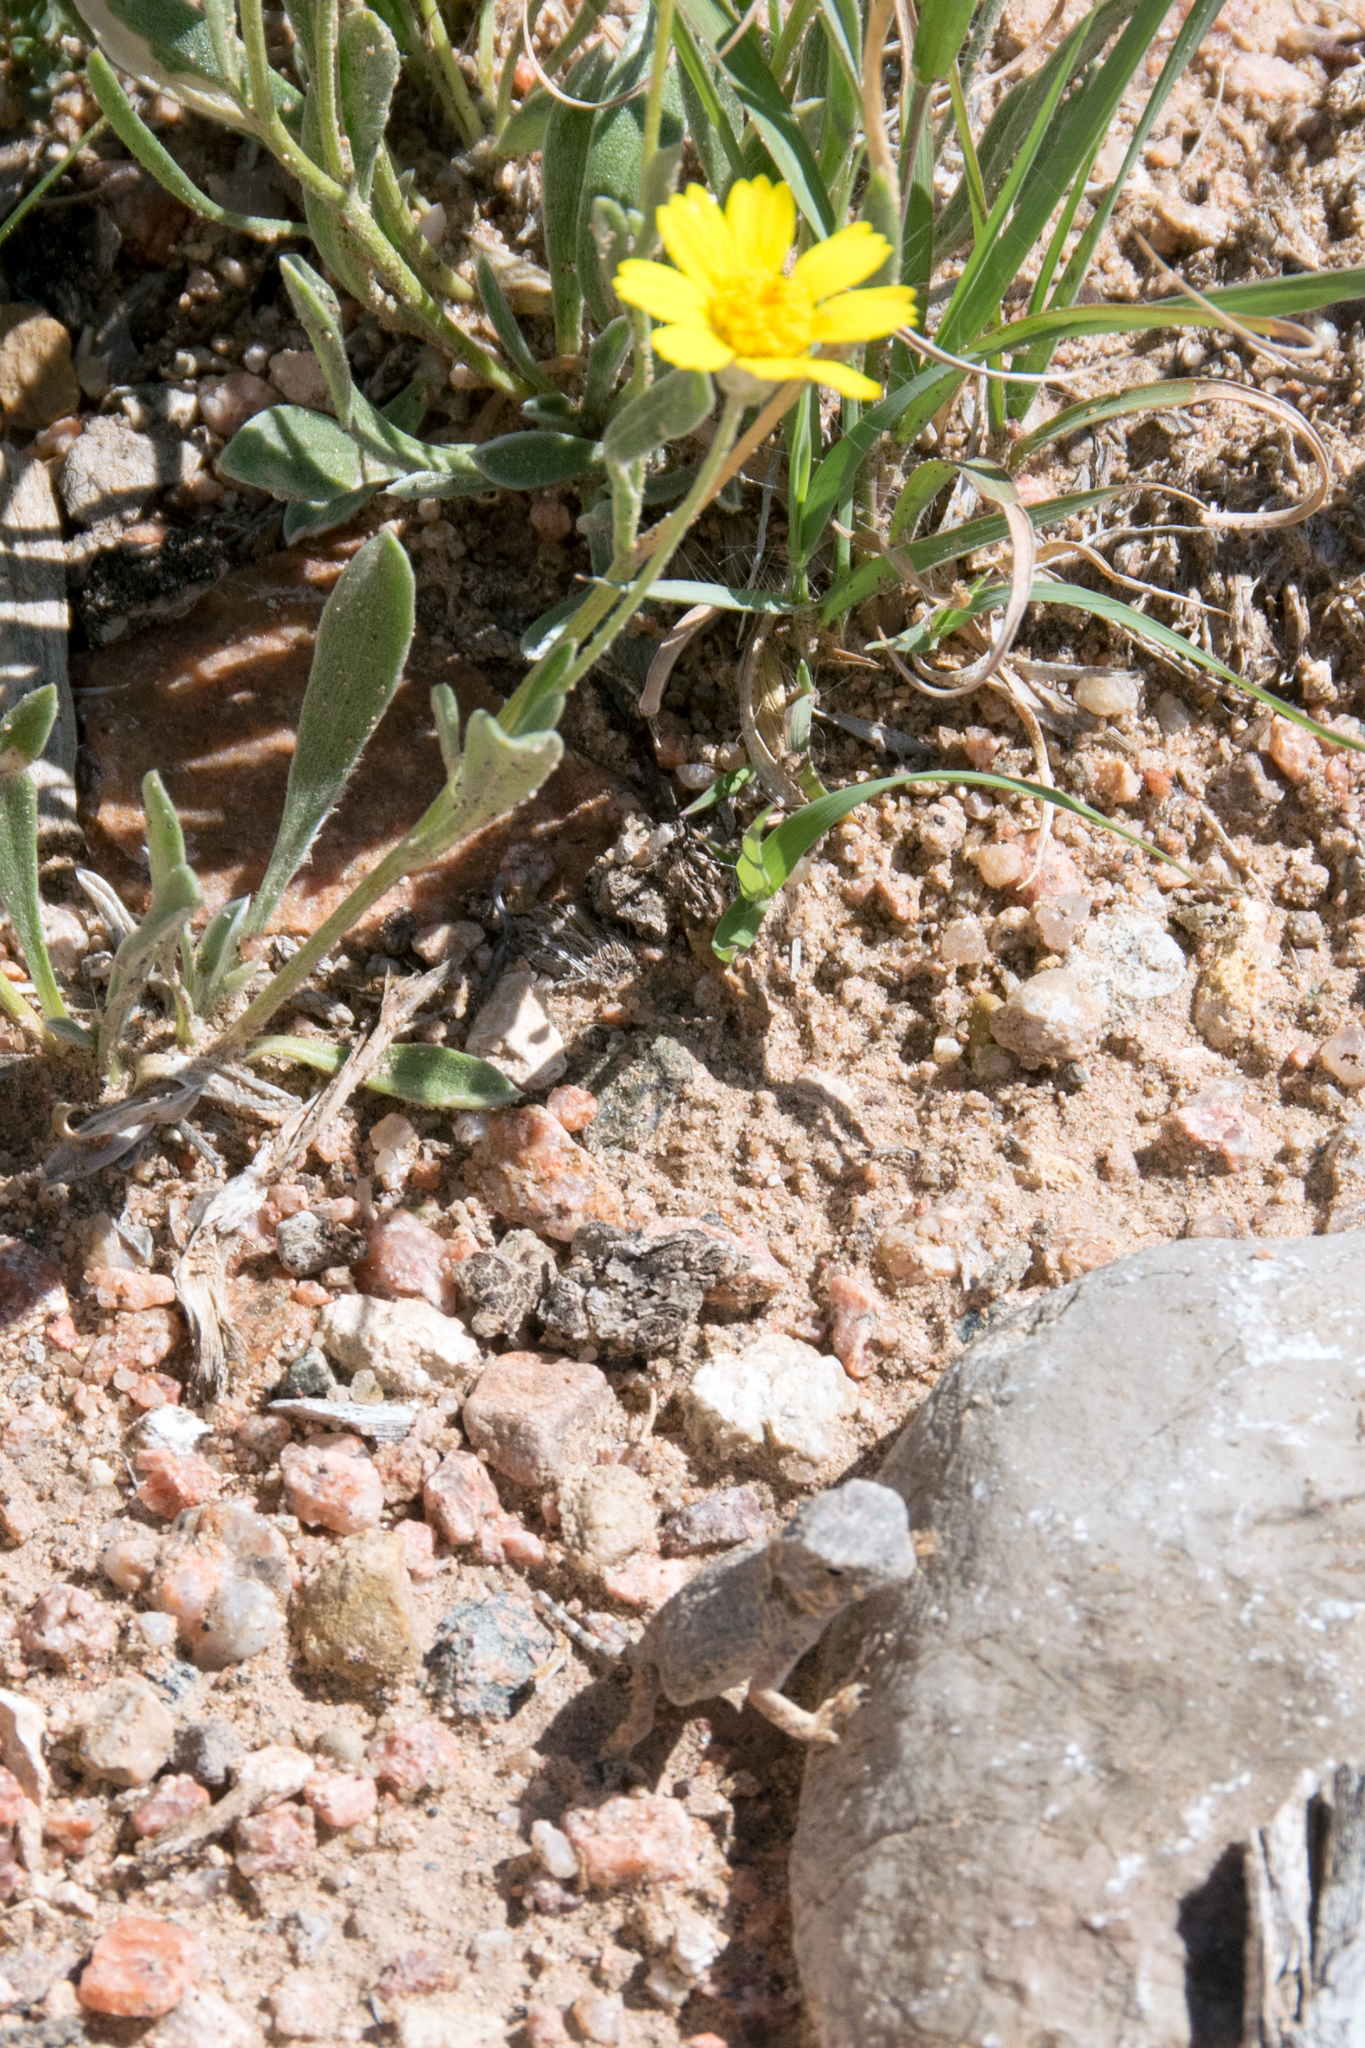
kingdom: Animalia
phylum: Chordata
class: Squamata
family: Phrynosomatidae
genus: Phrynosoma
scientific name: Phrynosoma modestum
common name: Roundtail horned lizard
